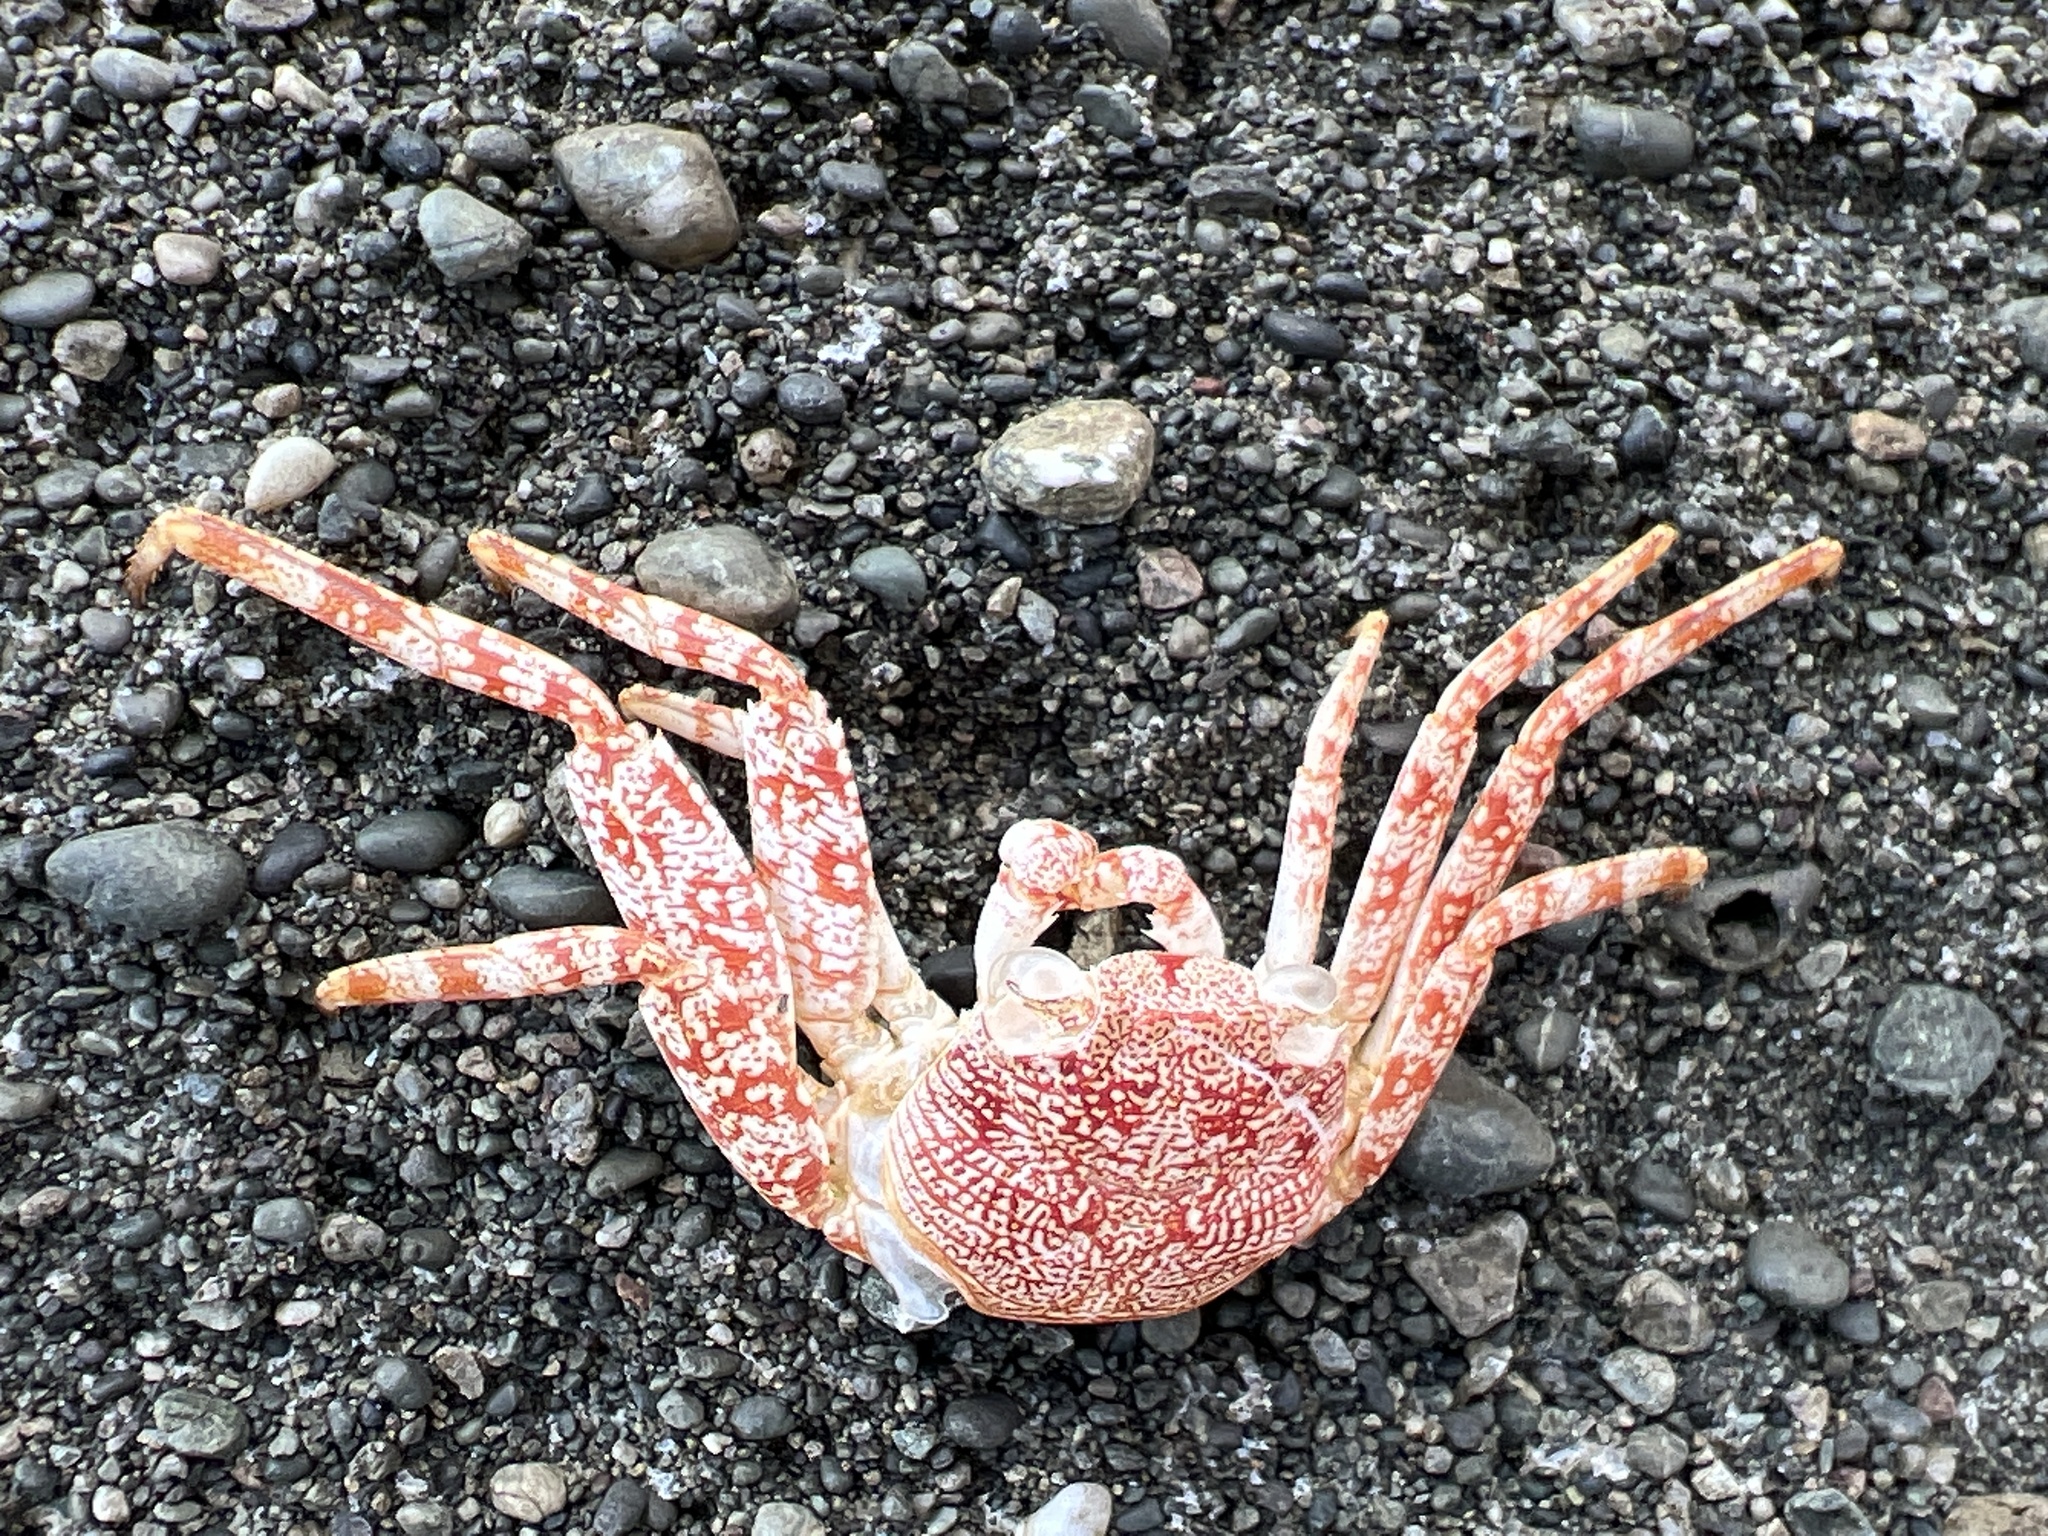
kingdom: Animalia
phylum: Arthropoda
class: Malacostraca
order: Decapoda
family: Grapsidae
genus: Grapsus
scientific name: Grapsus grapsus
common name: Sally lightfoot
